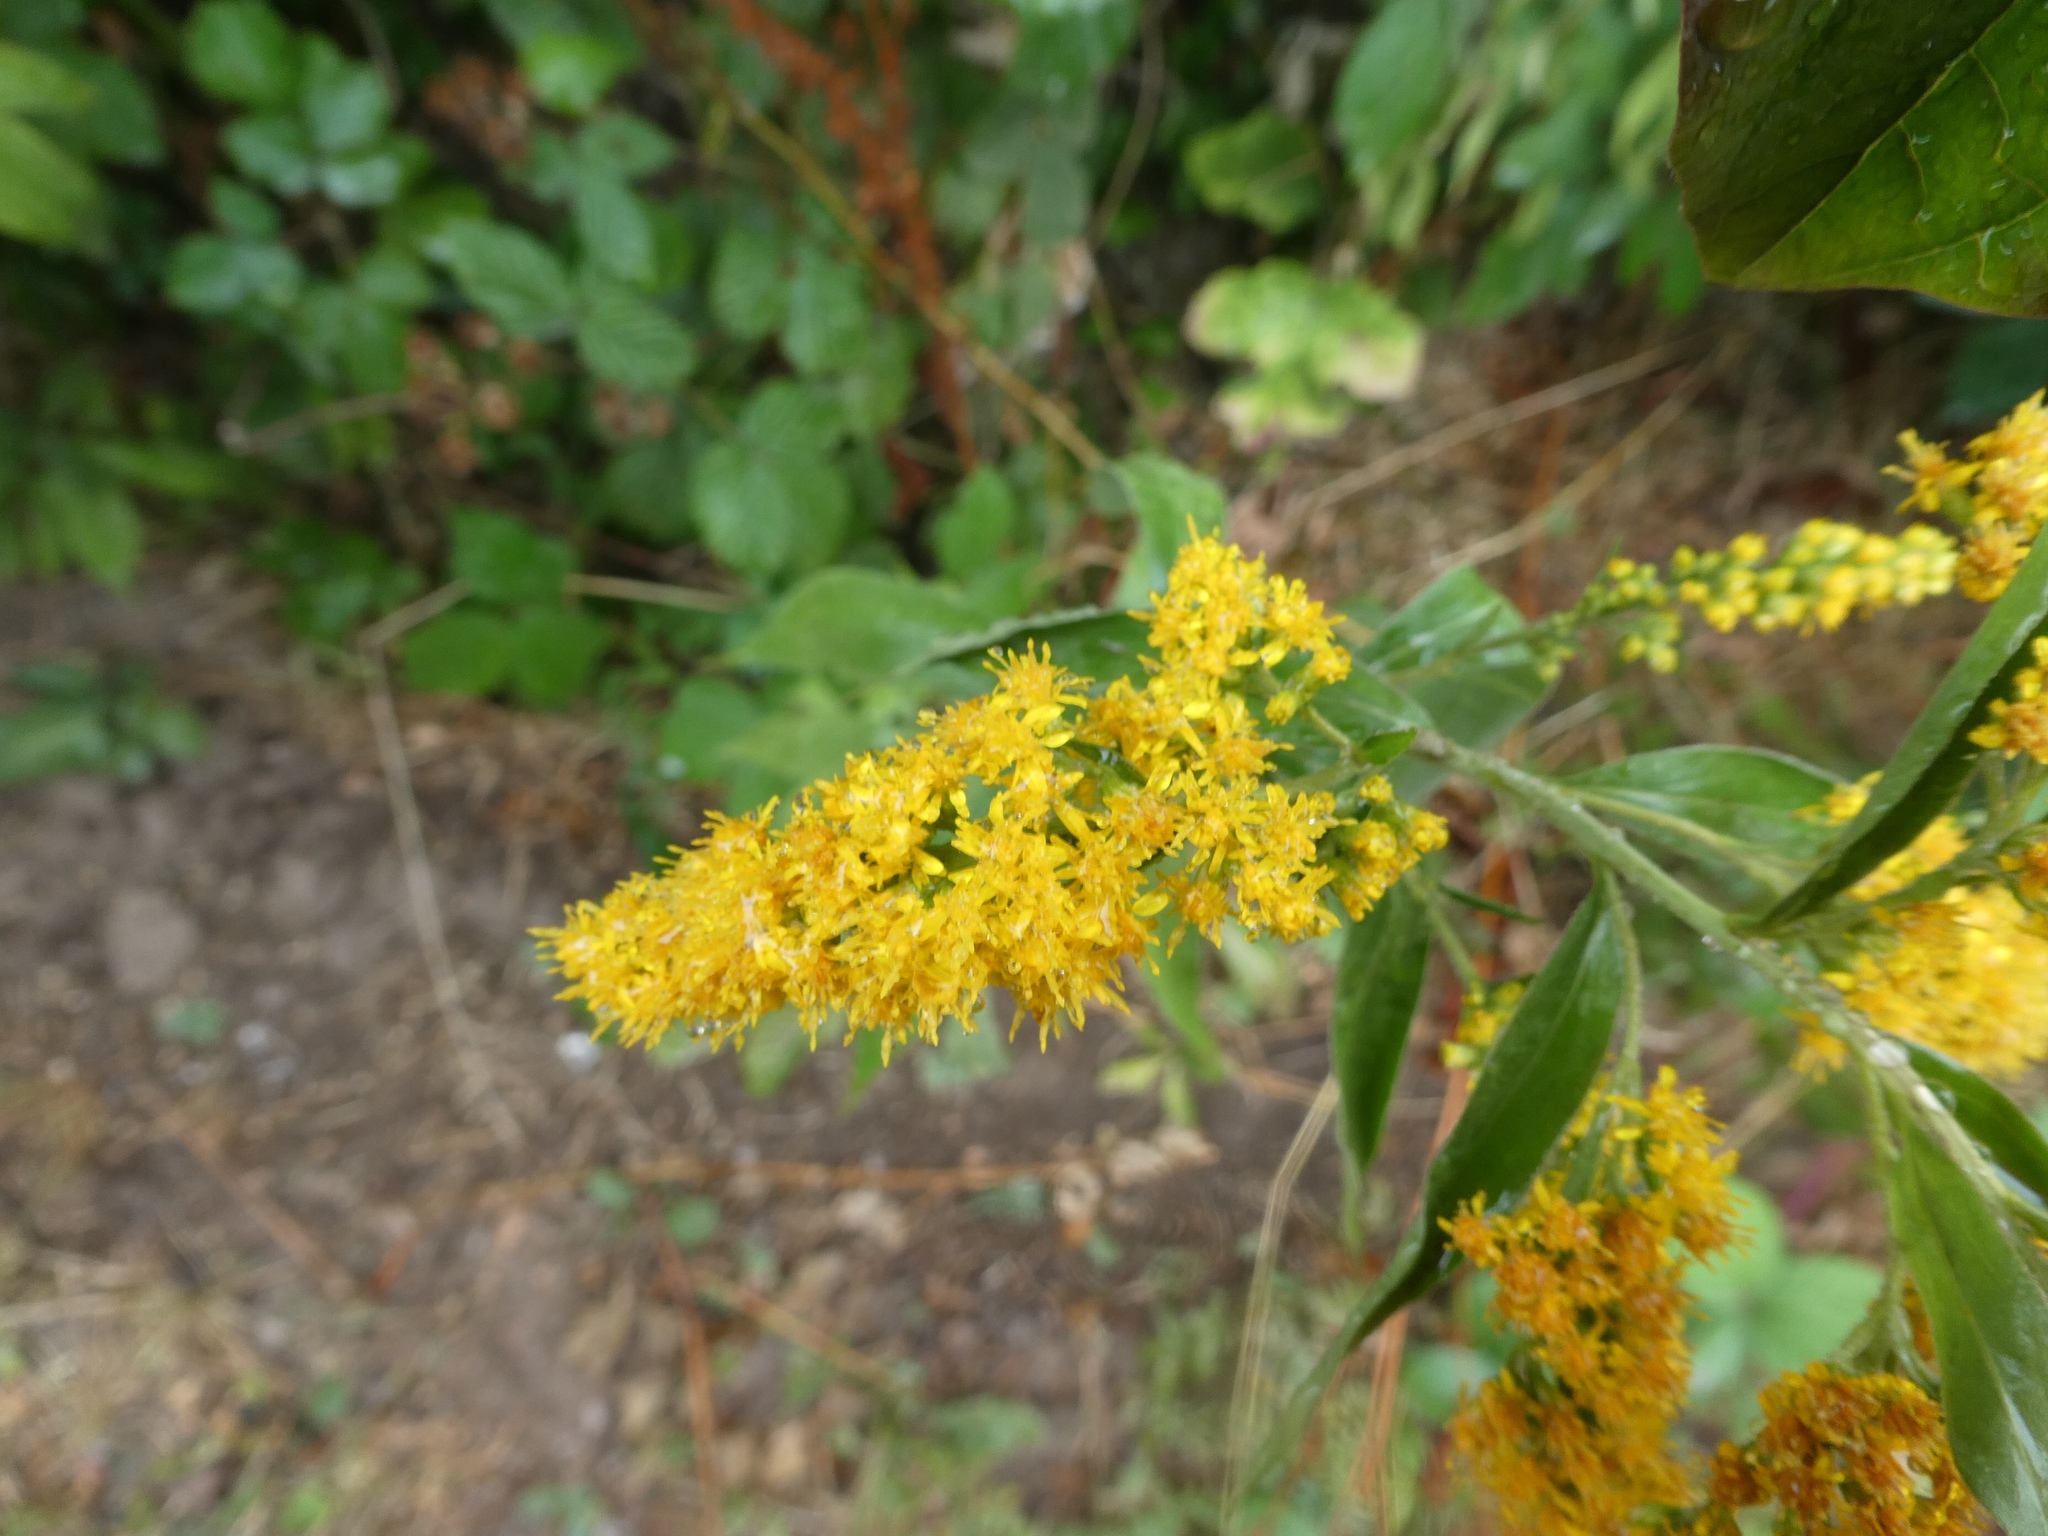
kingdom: Plantae
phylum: Tracheophyta
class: Magnoliopsida
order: Asterales
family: Asteraceae
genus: Solidago
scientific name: Solidago virgaurea
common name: Goldenrod
